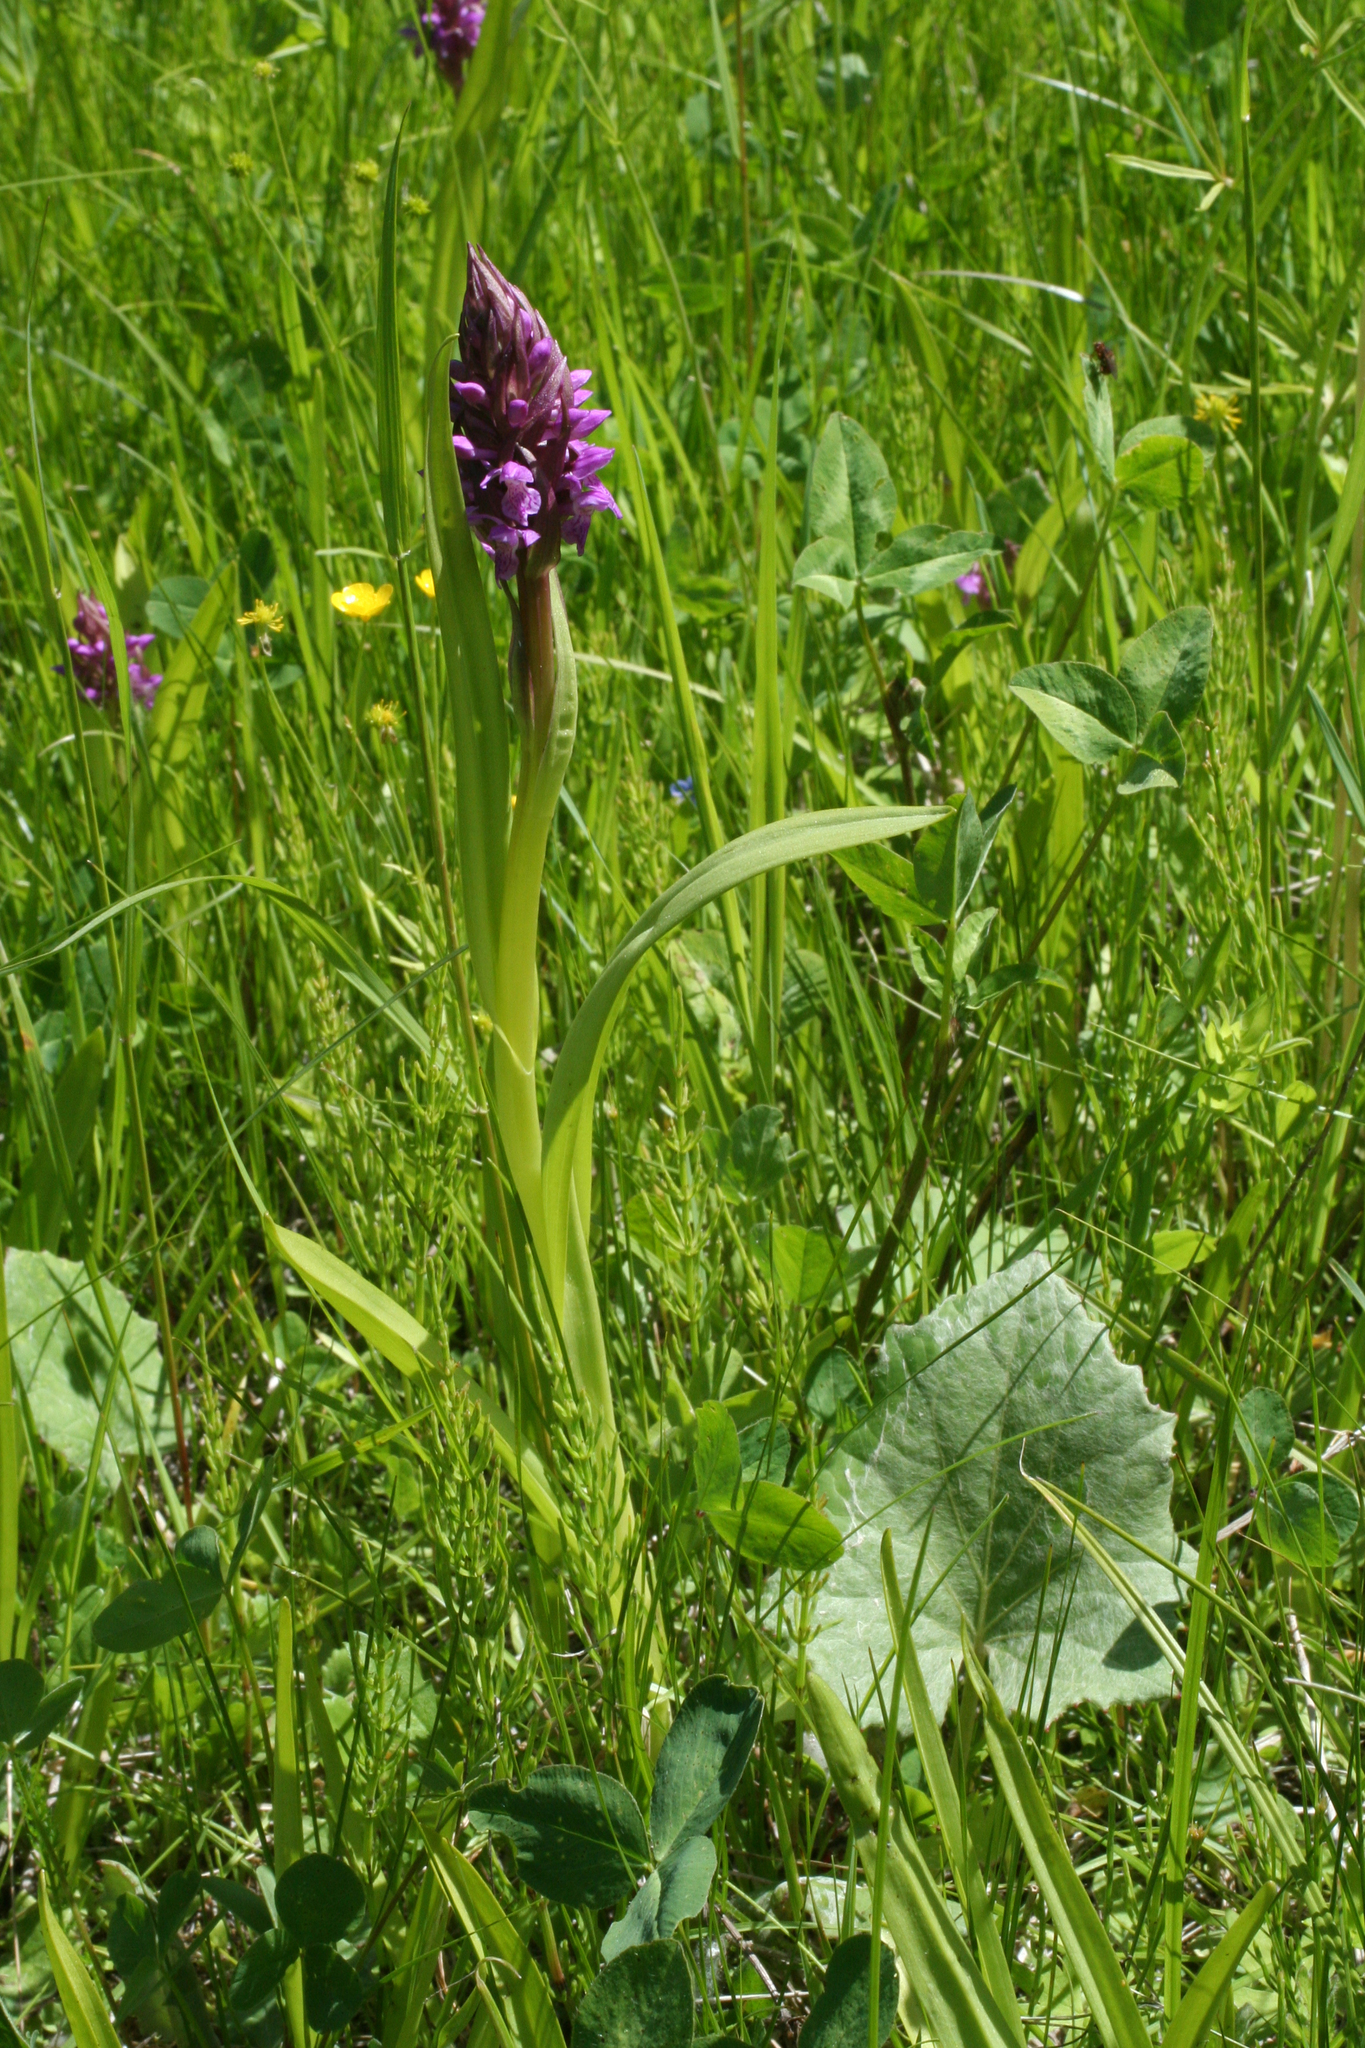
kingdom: Plantae
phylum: Tracheophyta
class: Liliopsida
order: Asparagales
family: Orchidaceae
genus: Dactylorhiza
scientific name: Dactylorhiza incarnata
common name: Early marsh-orchid
